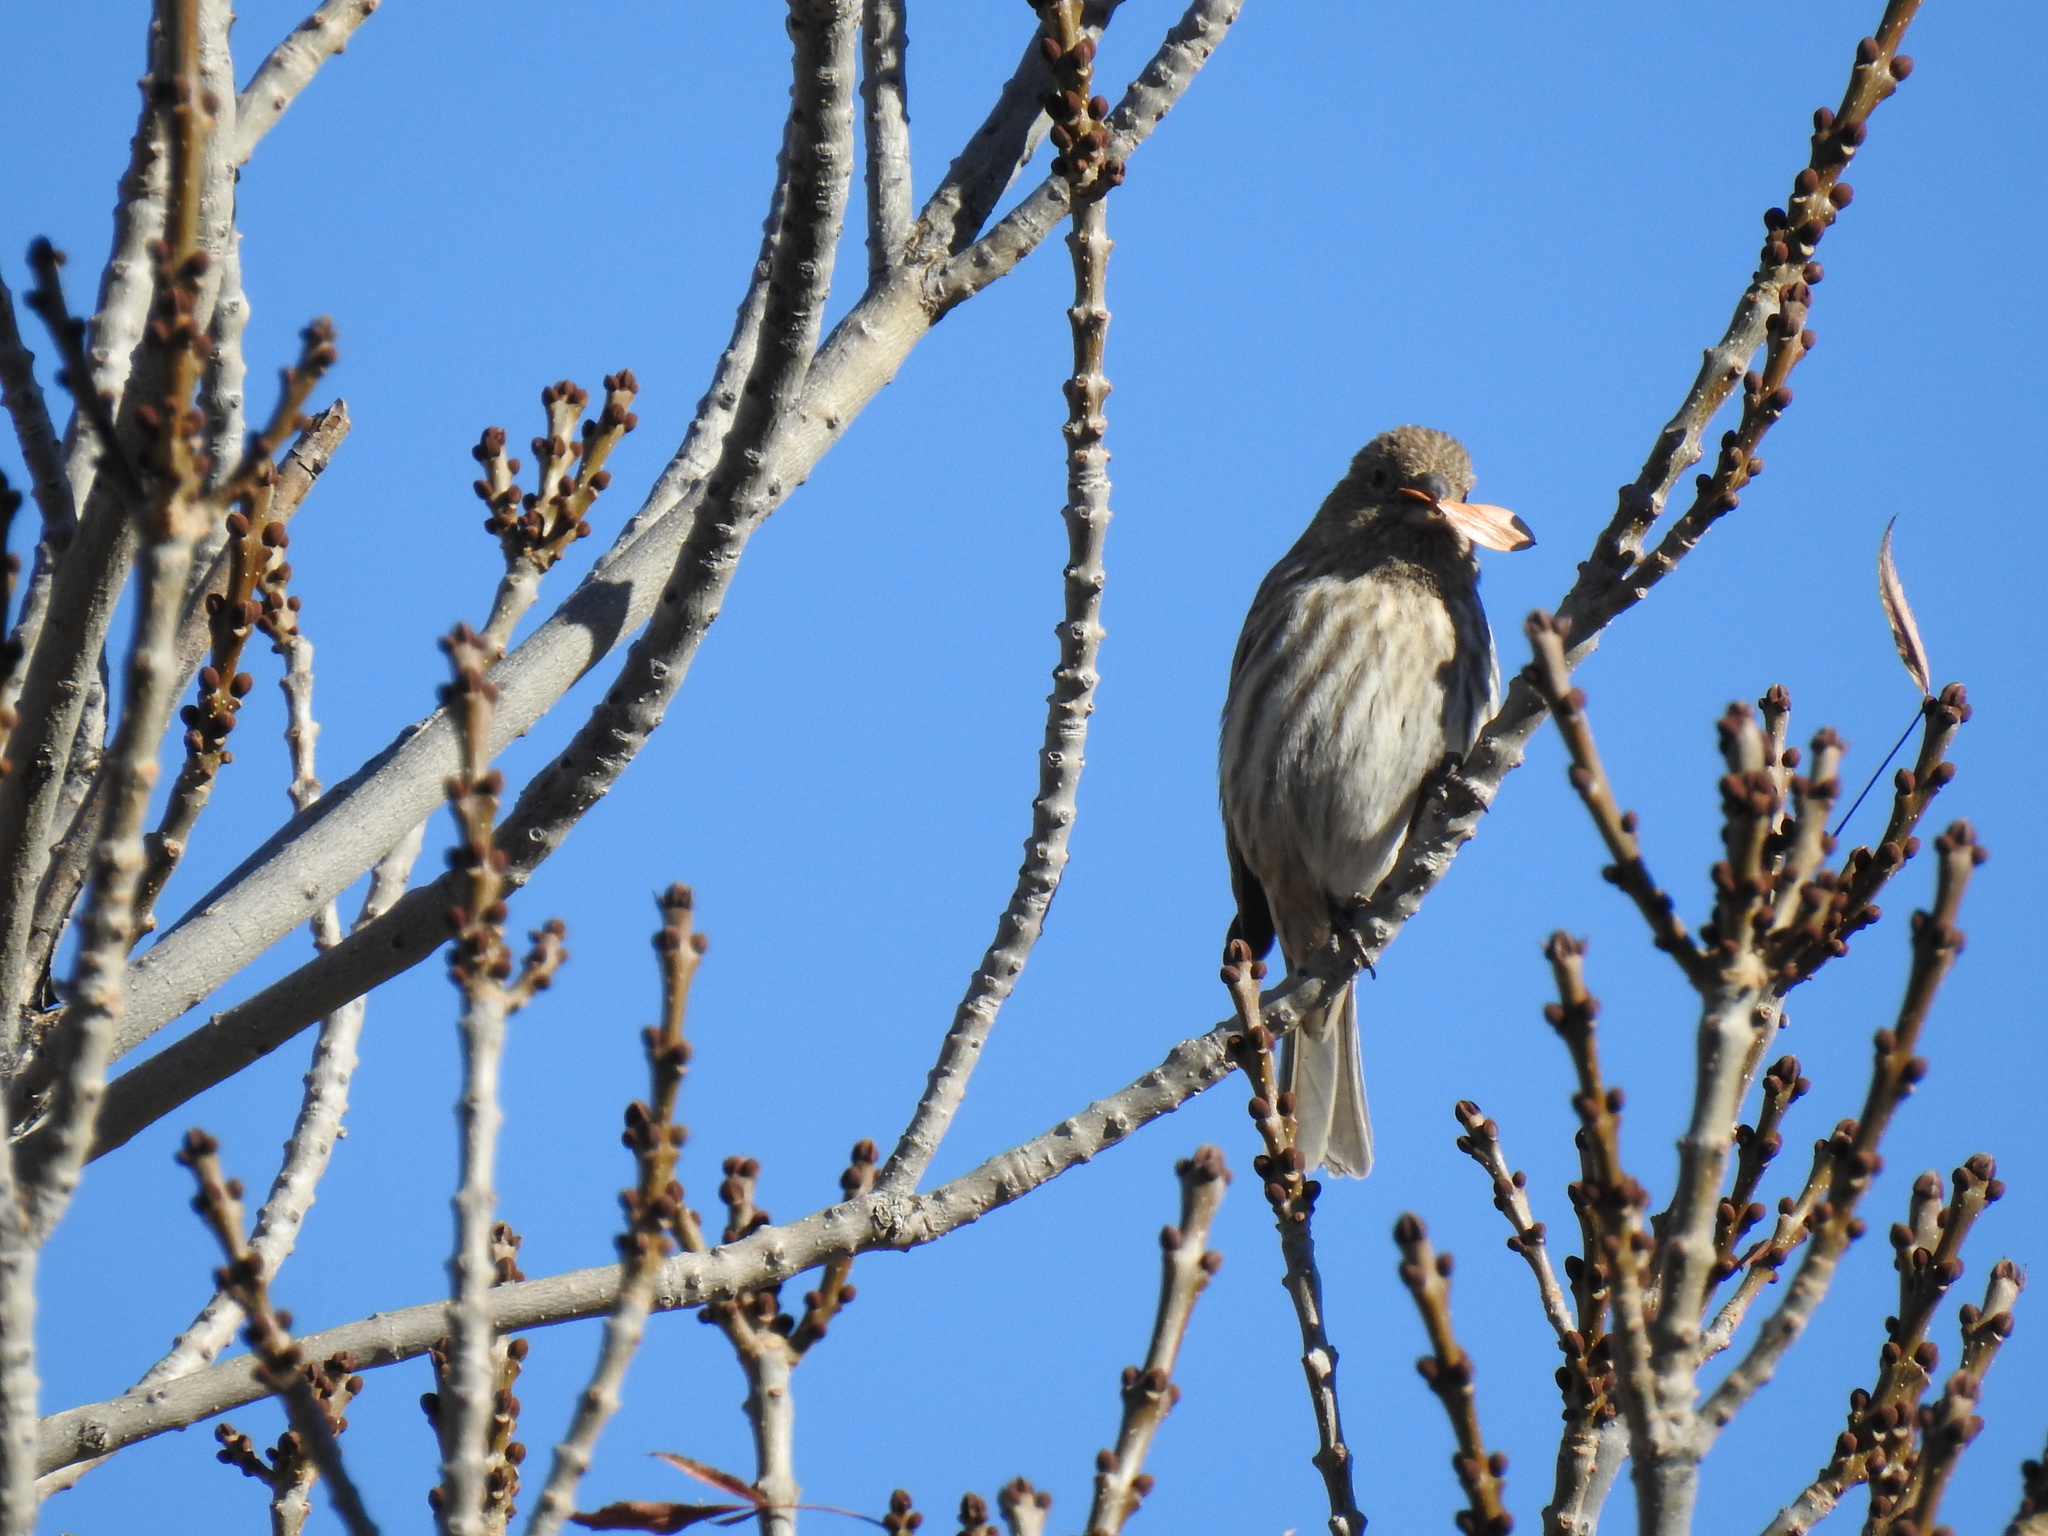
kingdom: Animalia
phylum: Chordata
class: Aves
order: Passeriformes
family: Fringillidae
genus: Haemorhous
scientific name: Haemorhous mexicanus
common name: House finch
